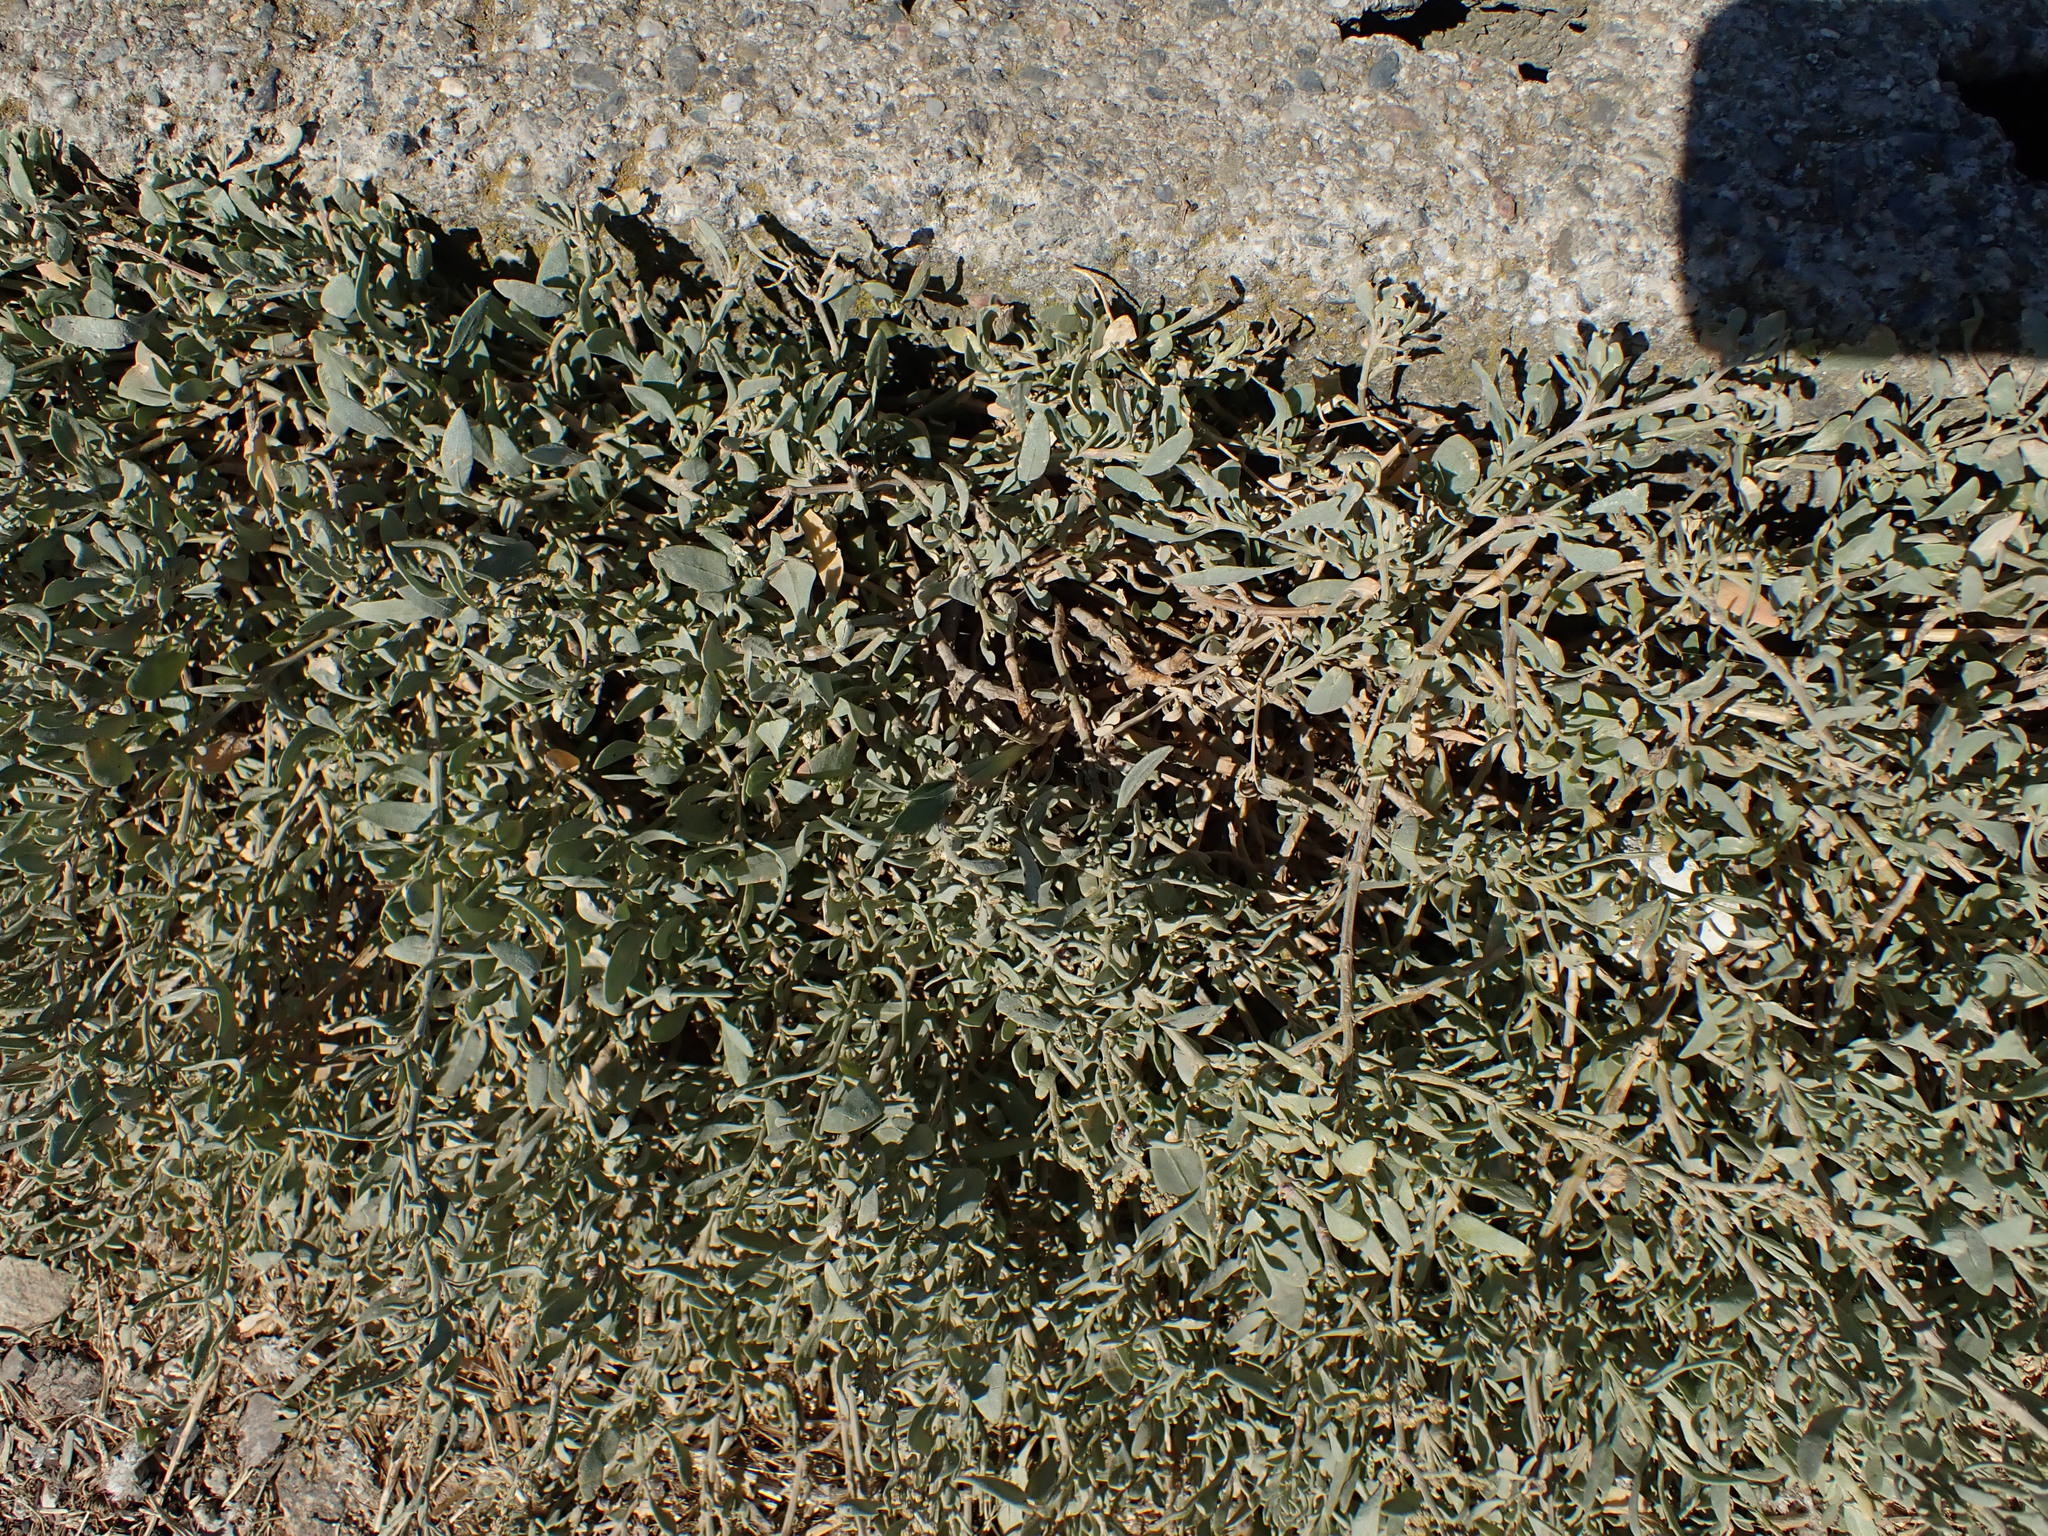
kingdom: Plantae
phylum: Tracheophyta
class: Magnoliopsida
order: Caryophyllales
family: Amaranthaceae
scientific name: Amaranthaceae
